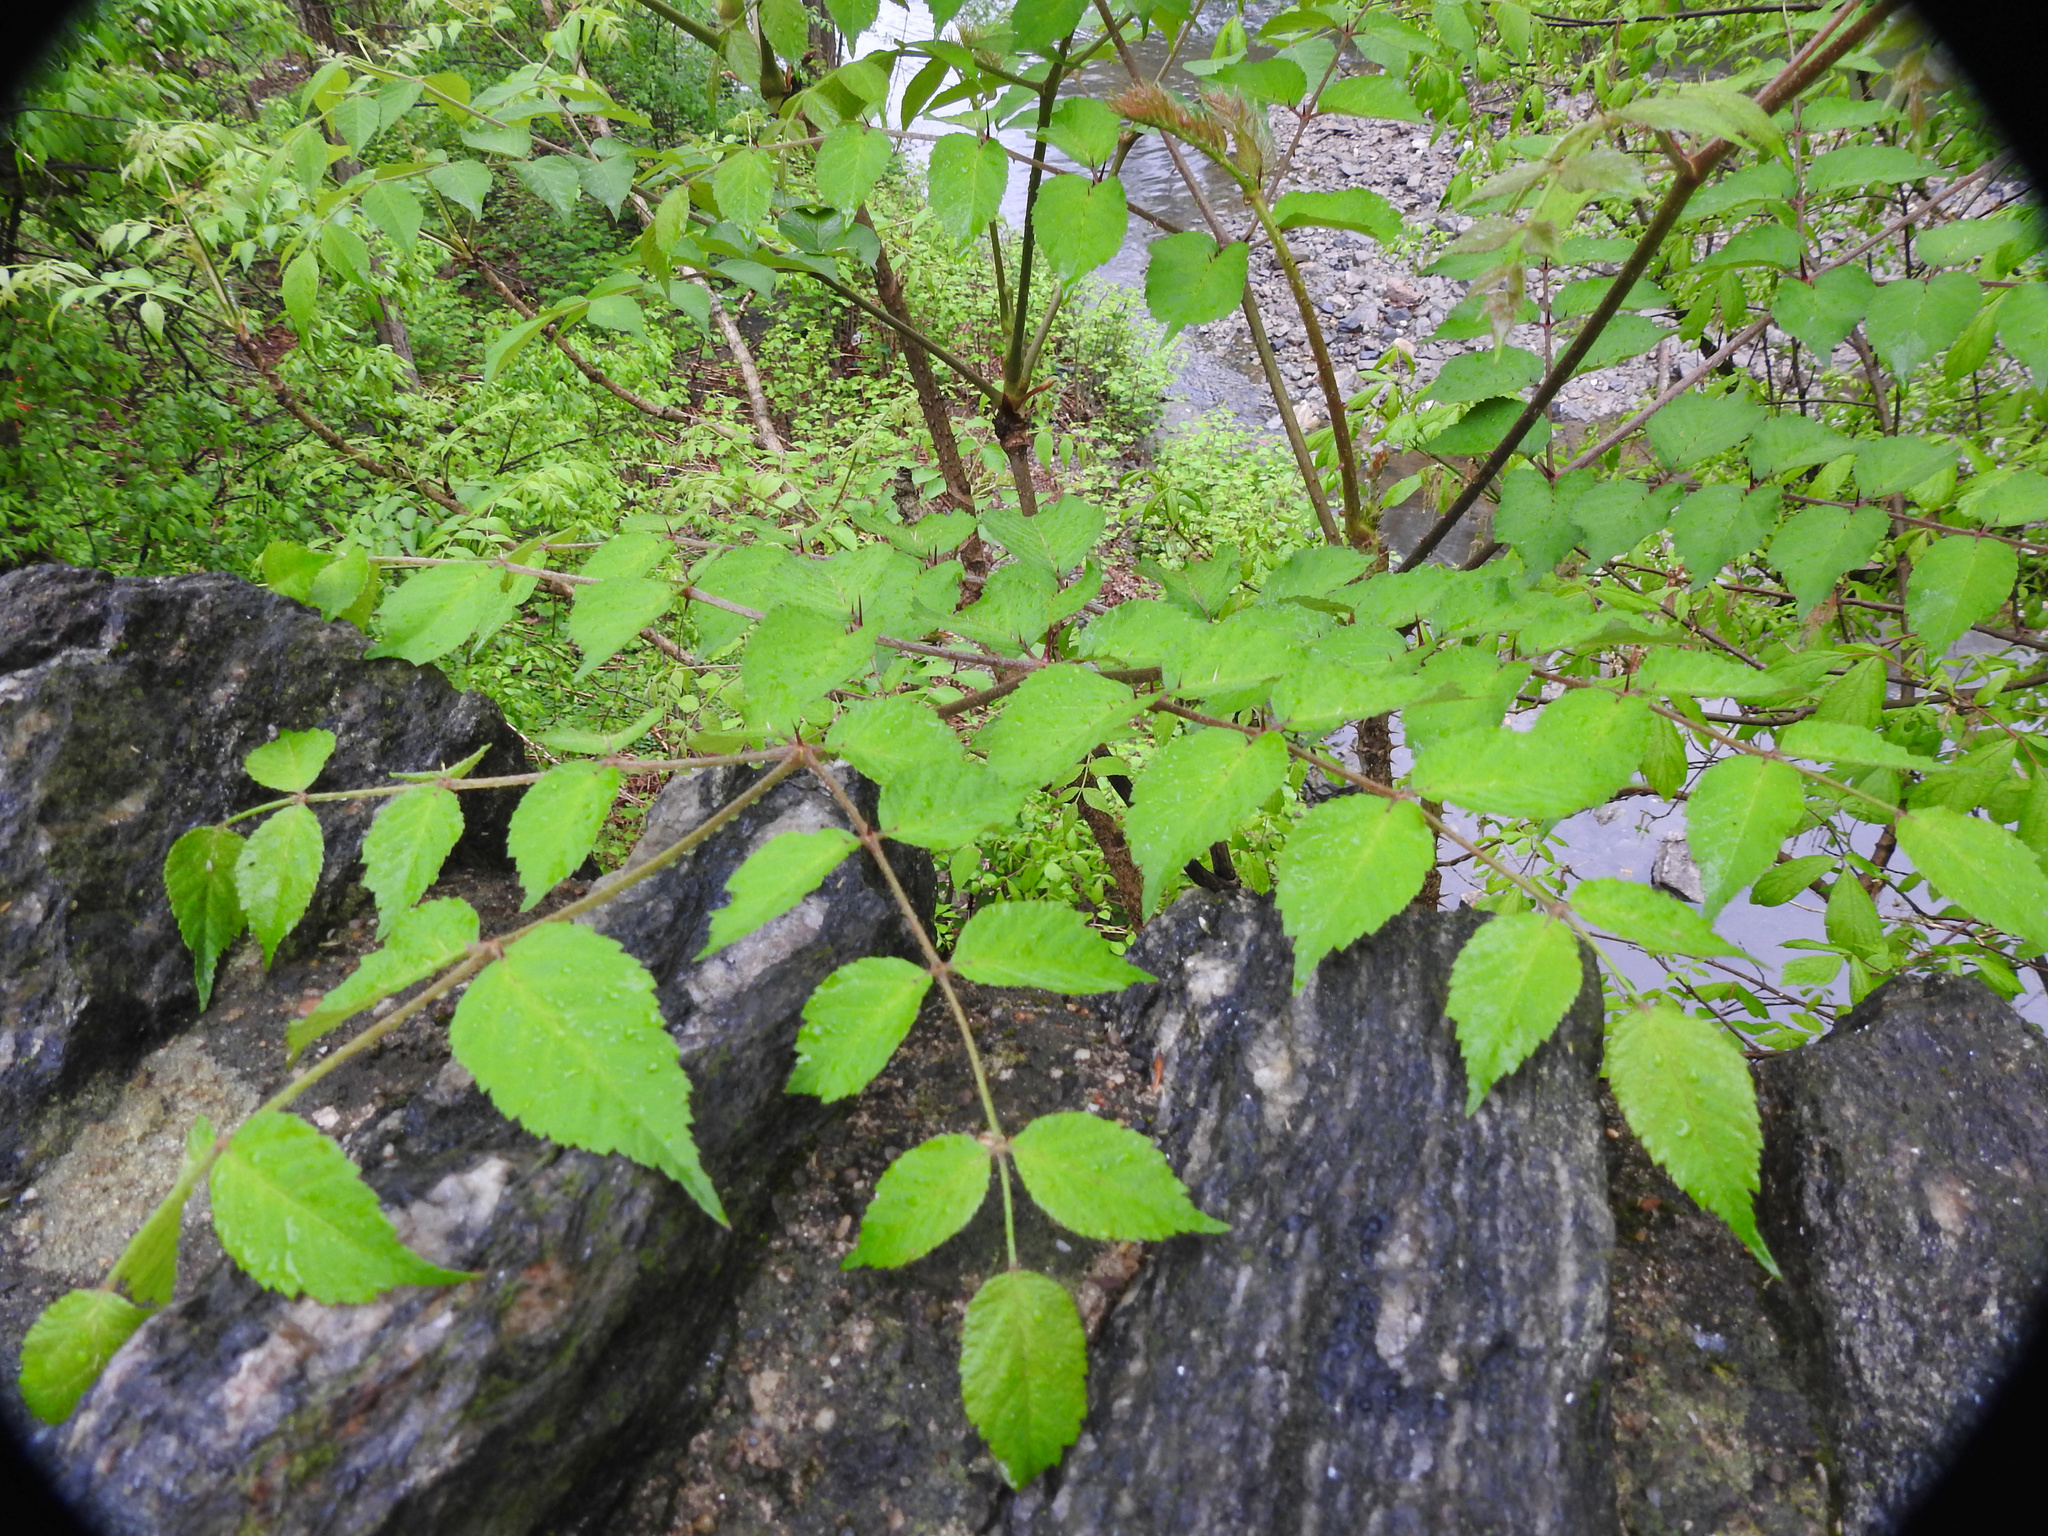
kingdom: Plantae
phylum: Tracheophyta
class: Magnoliopsida
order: Apiales
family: Araliaceae
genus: Aralia
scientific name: Aralia elata
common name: Japanese angelica-tree
